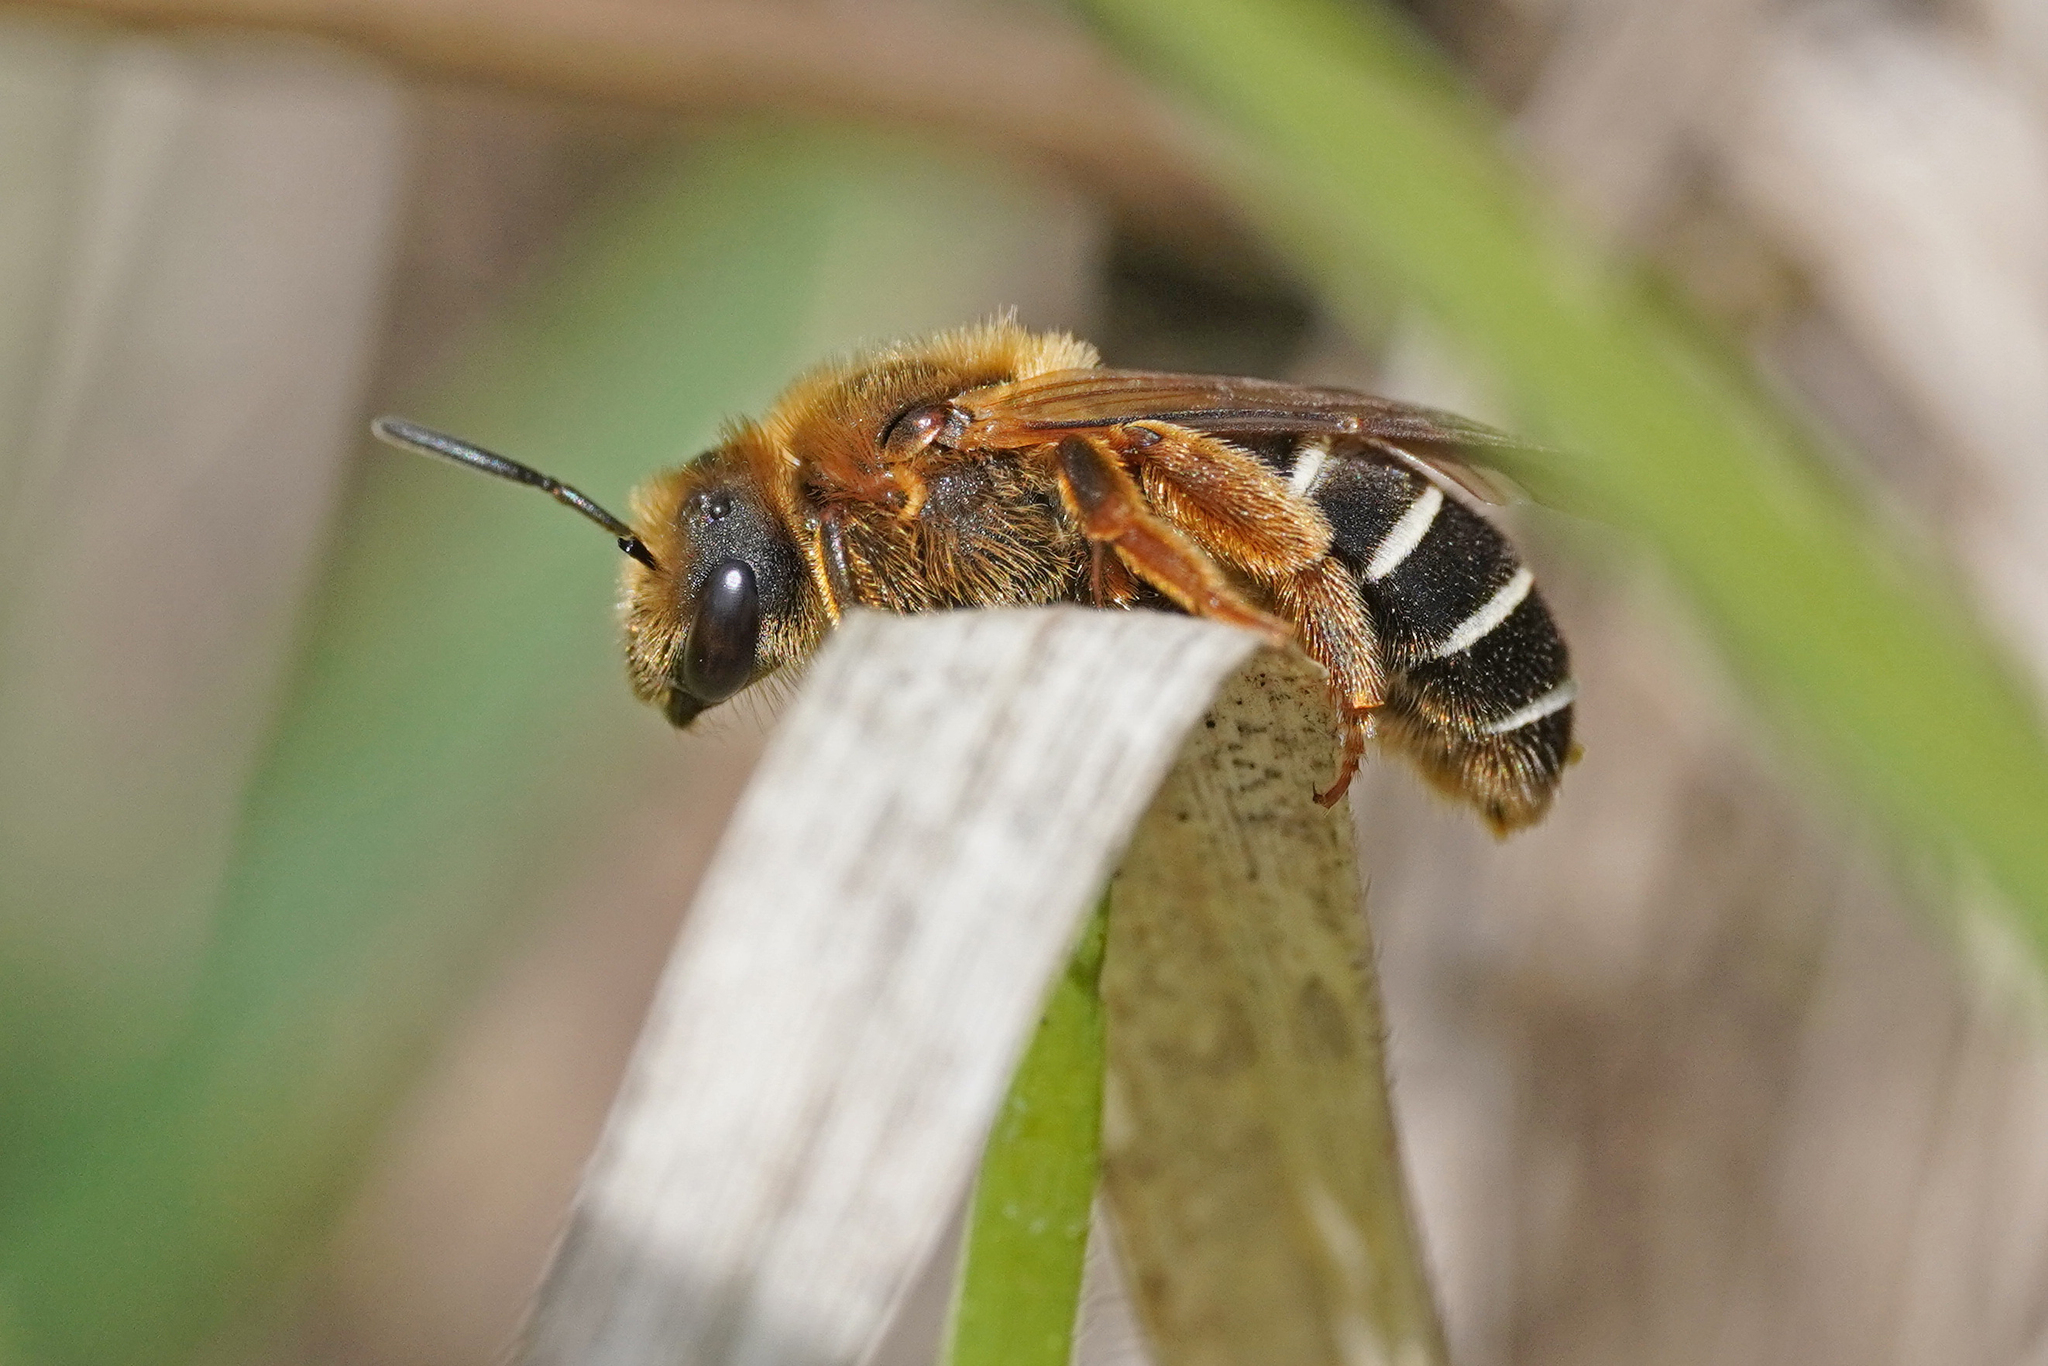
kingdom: Animalia
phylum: Arthropoda
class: Insecta
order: Hymenoptera
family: Halictidae
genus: Halictus
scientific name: Halictus rubicundus
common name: Orange-legged furrow bee
